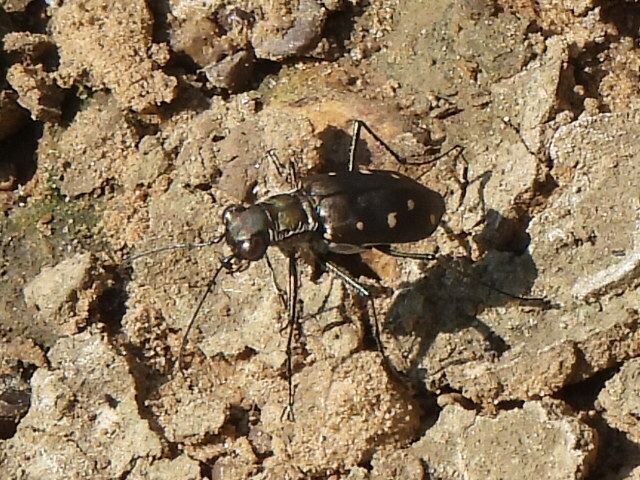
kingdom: Animalia
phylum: Arthropoda
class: Insecta
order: Coleoptera
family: Carabidae
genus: Cicindela
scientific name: Cicindela ocellata
